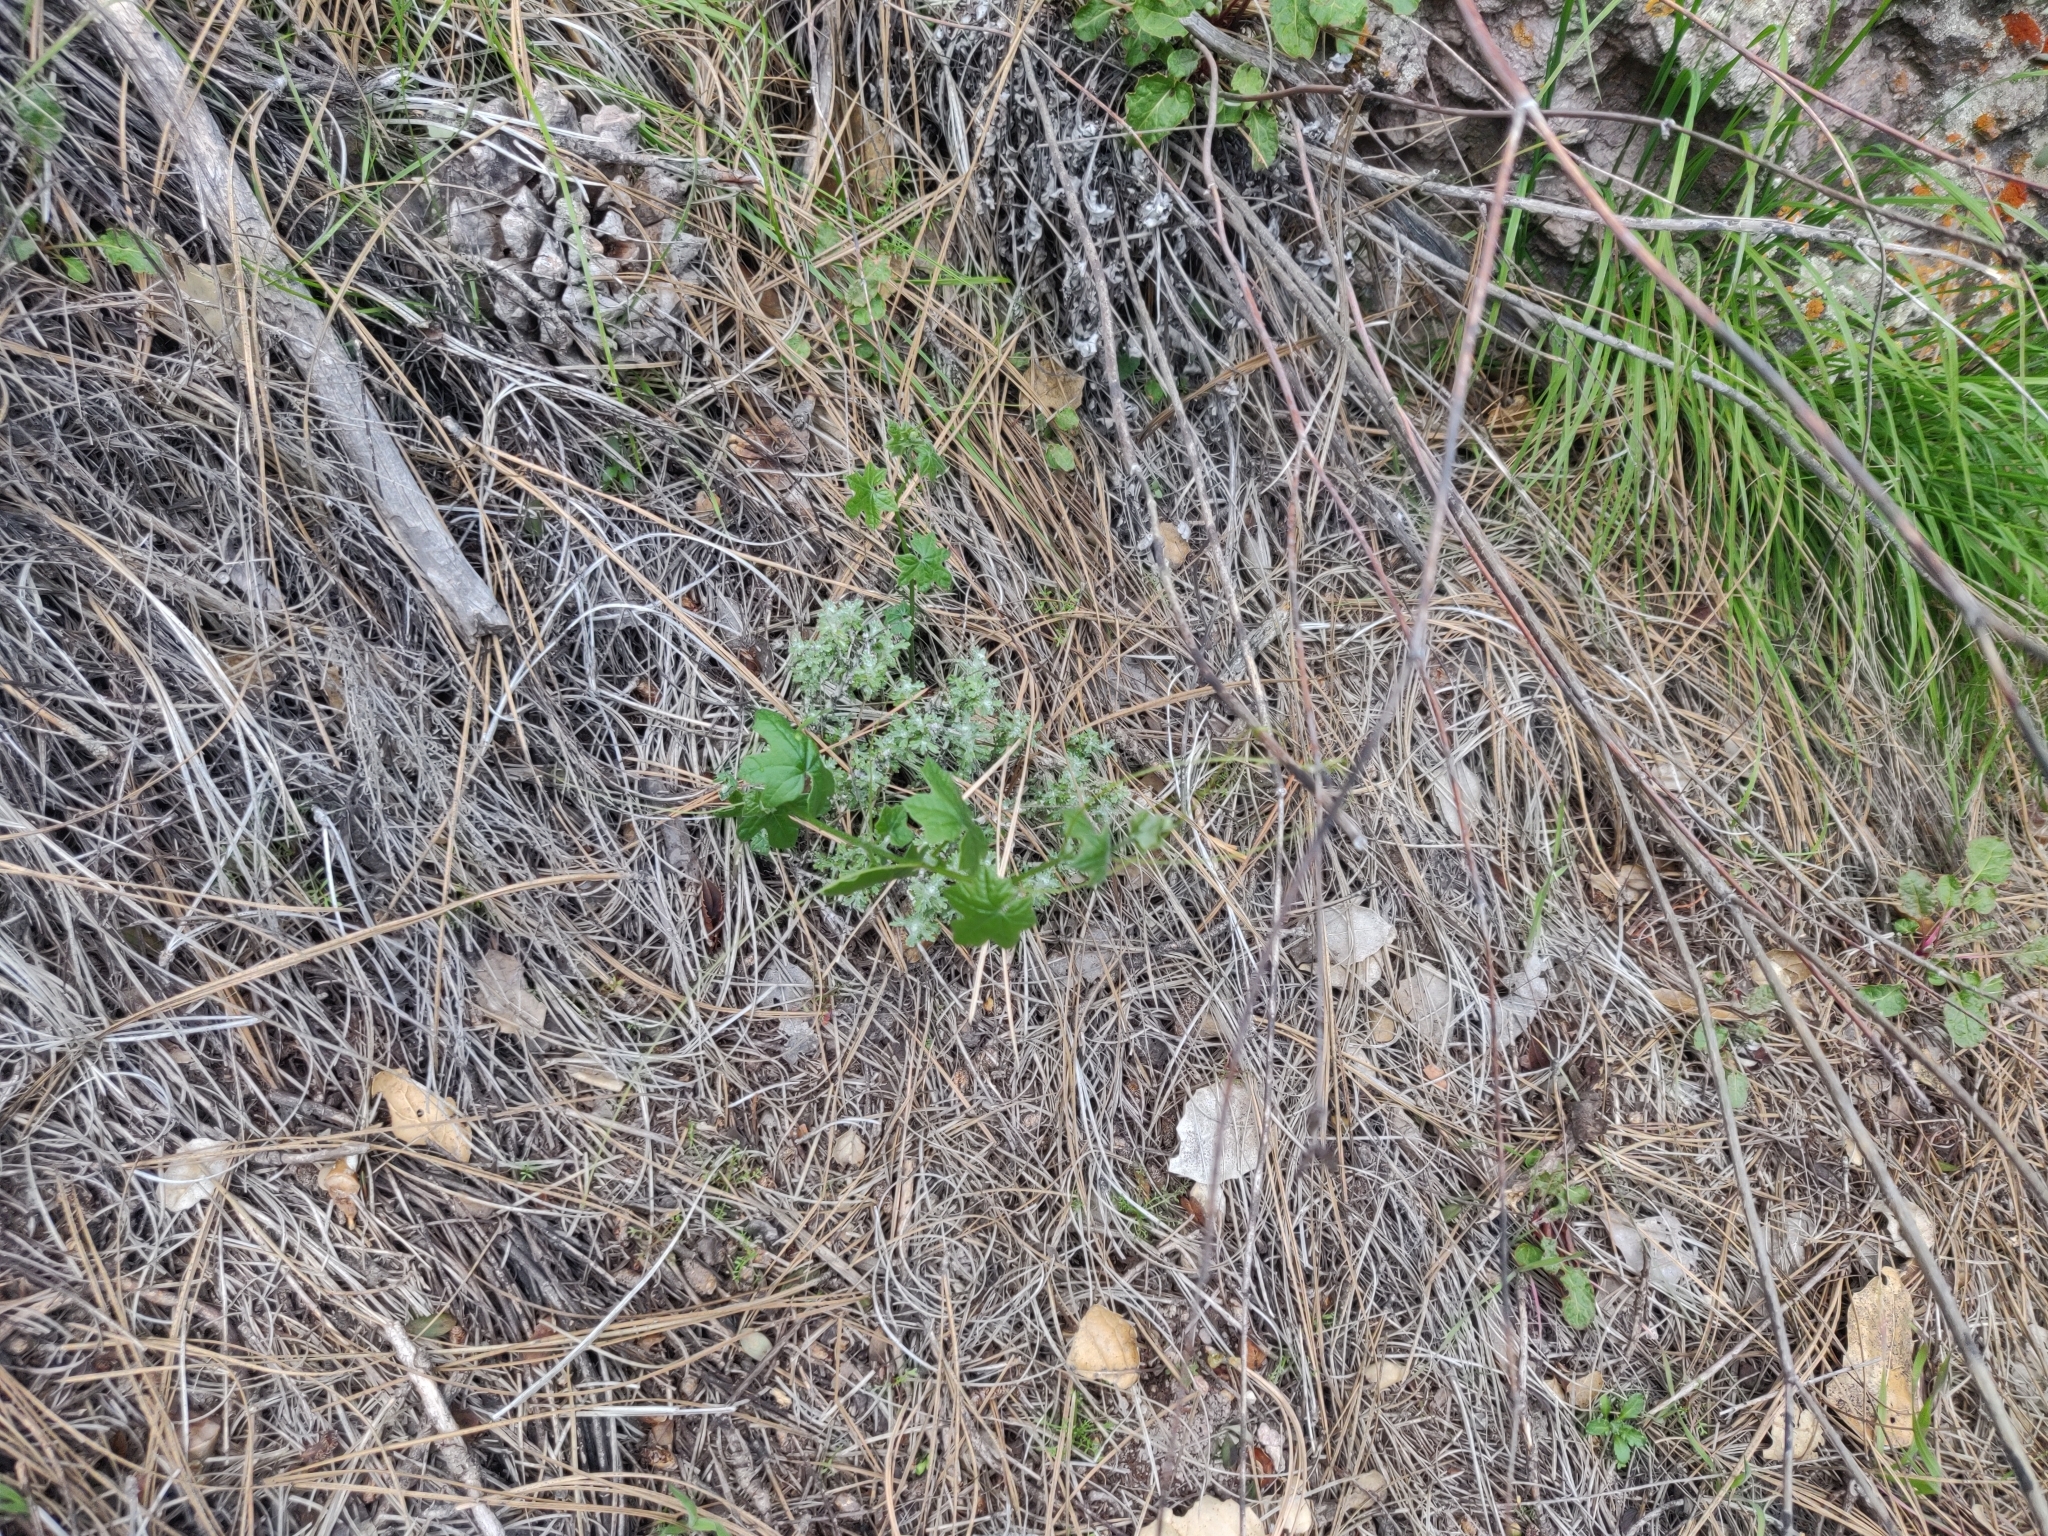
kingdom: Plantae
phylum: Tracheophyta
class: Magnoliopsida
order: Cucurbitales
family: Cucurbitaceae
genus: Marah
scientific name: Marah fabacea
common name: California manroot
